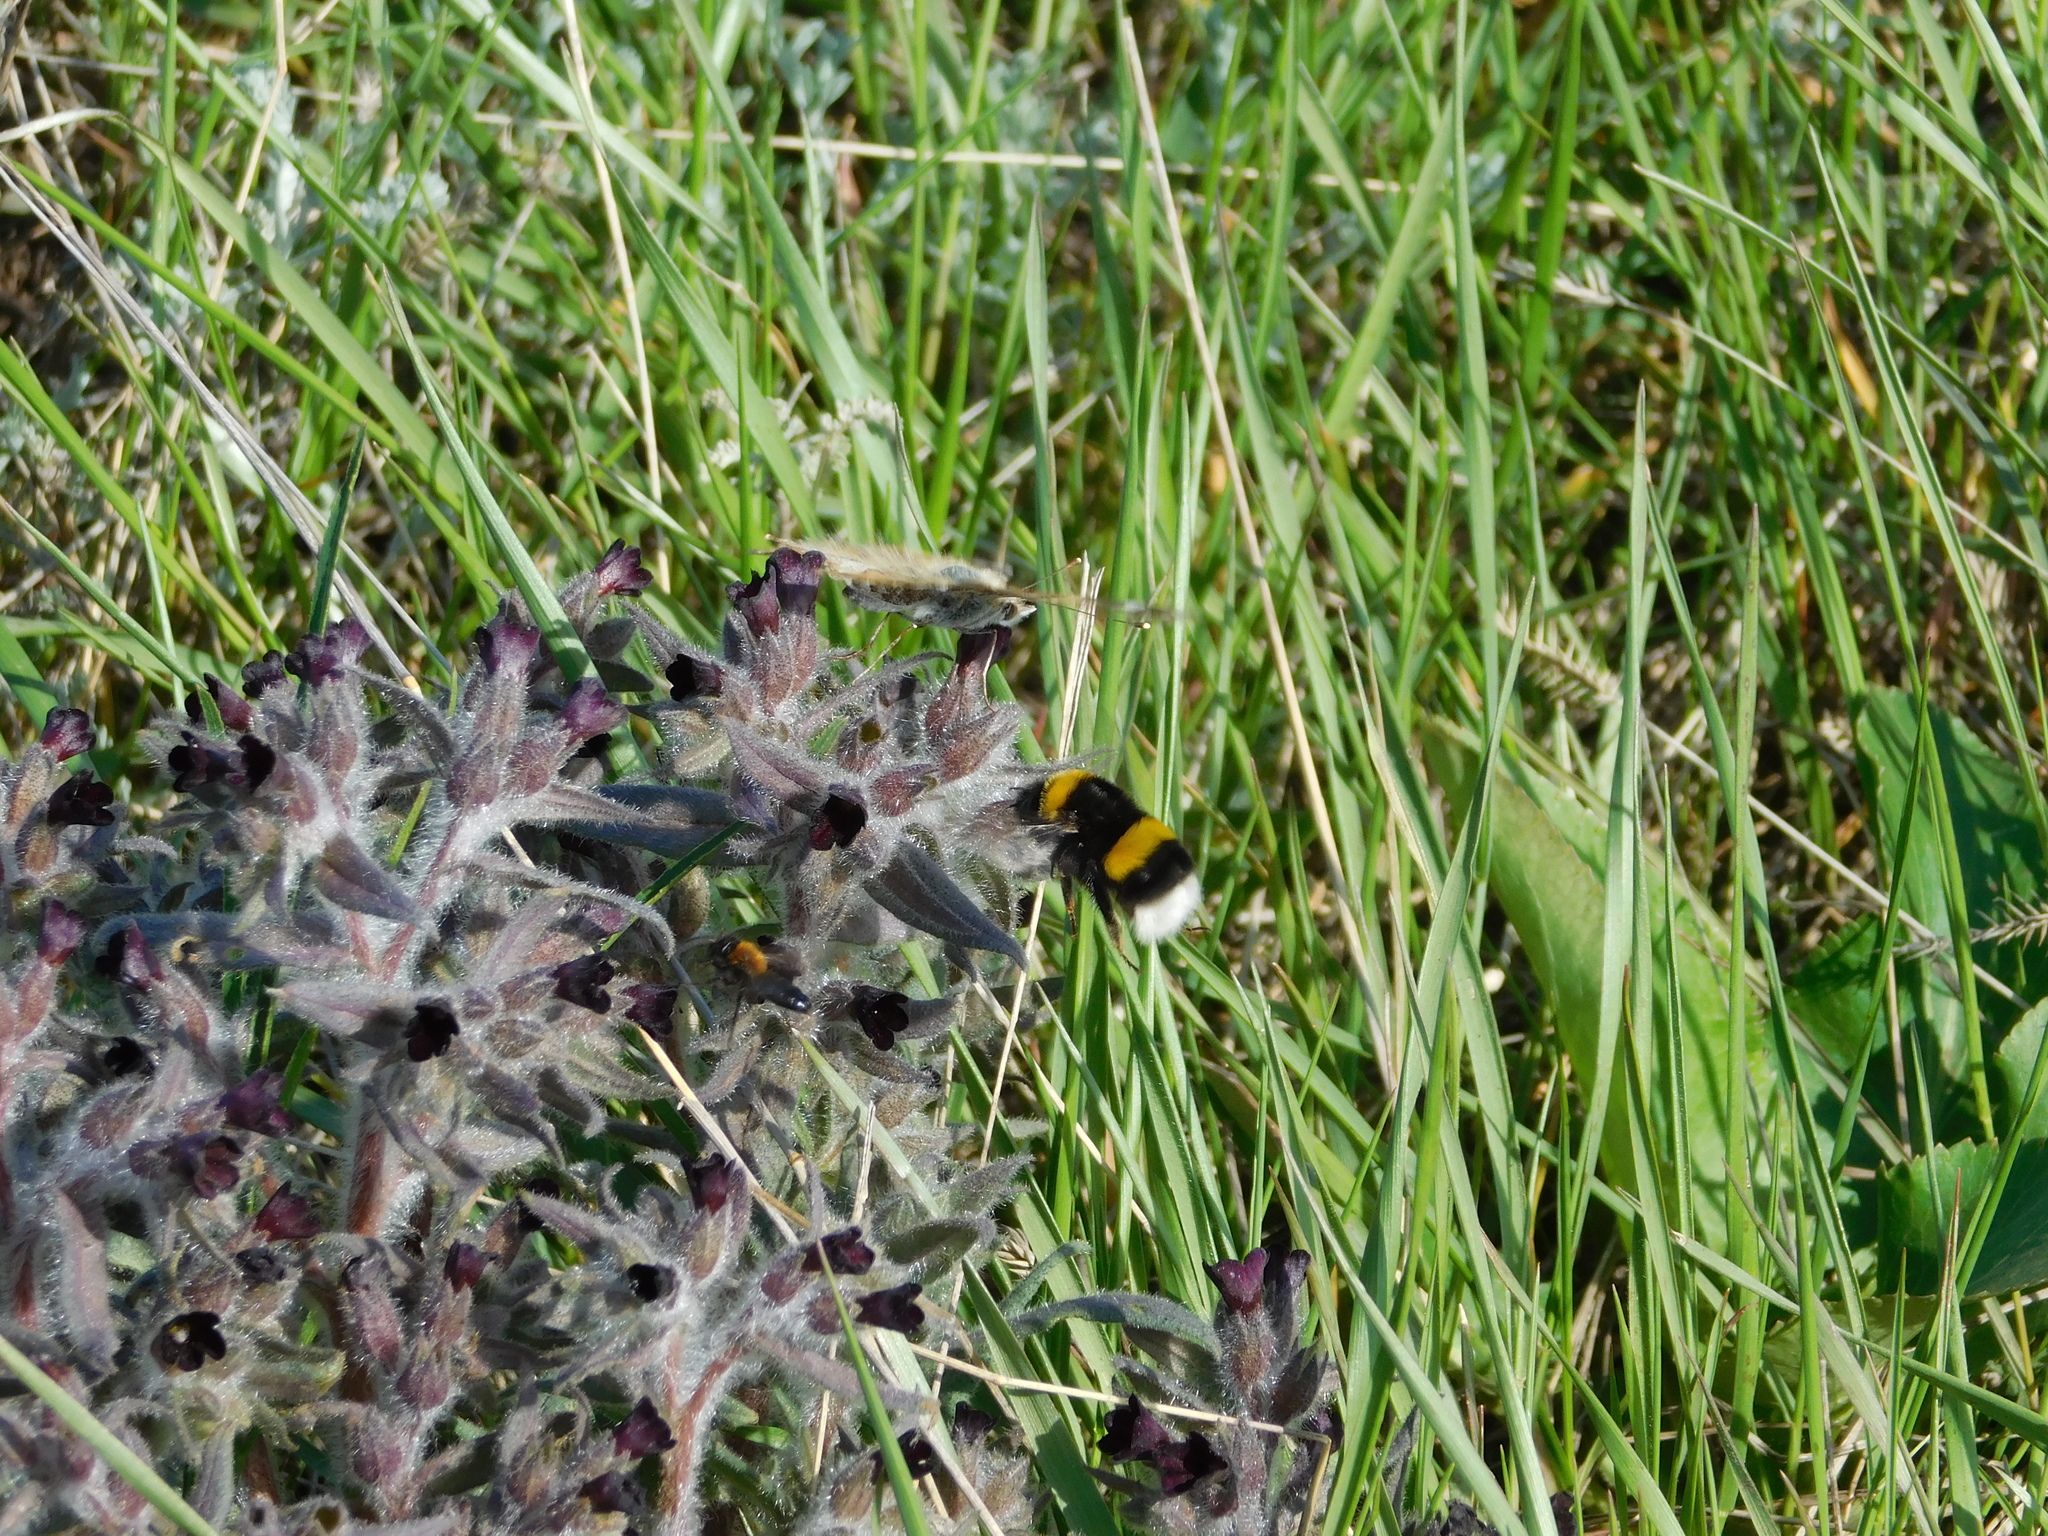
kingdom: Animalia
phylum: Arthropoda
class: Insecta
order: Hymenoptera
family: Apidae
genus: Bombus
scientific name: Bombus
